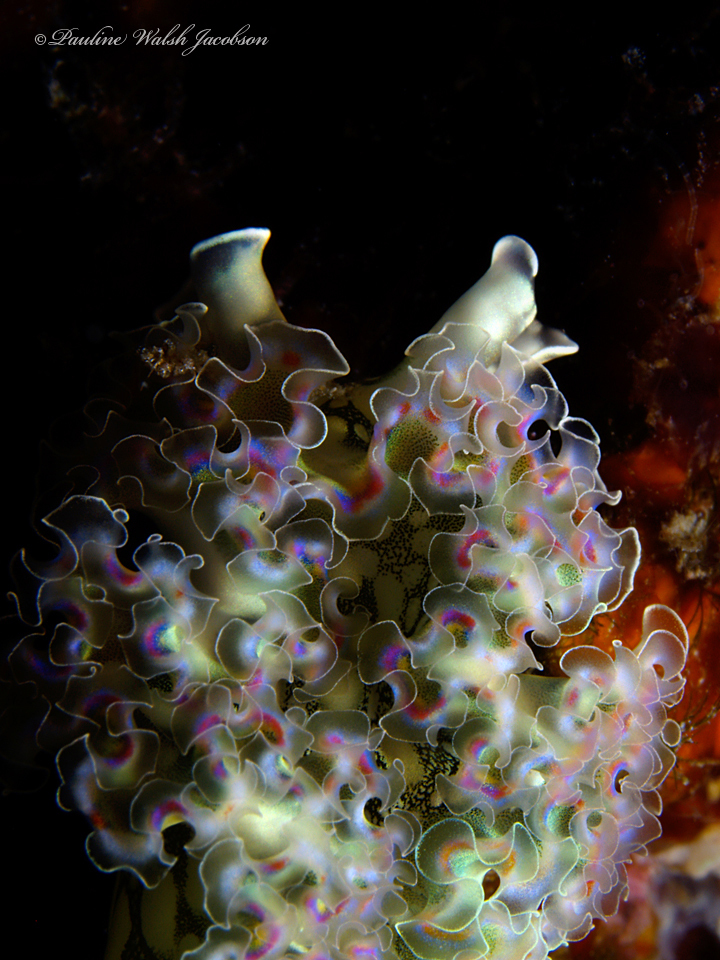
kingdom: Animalia
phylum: Mollusca
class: Gastropoda
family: Plakobranchidae
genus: Elysia
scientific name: Elysia crispata
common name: Lettuce slug
